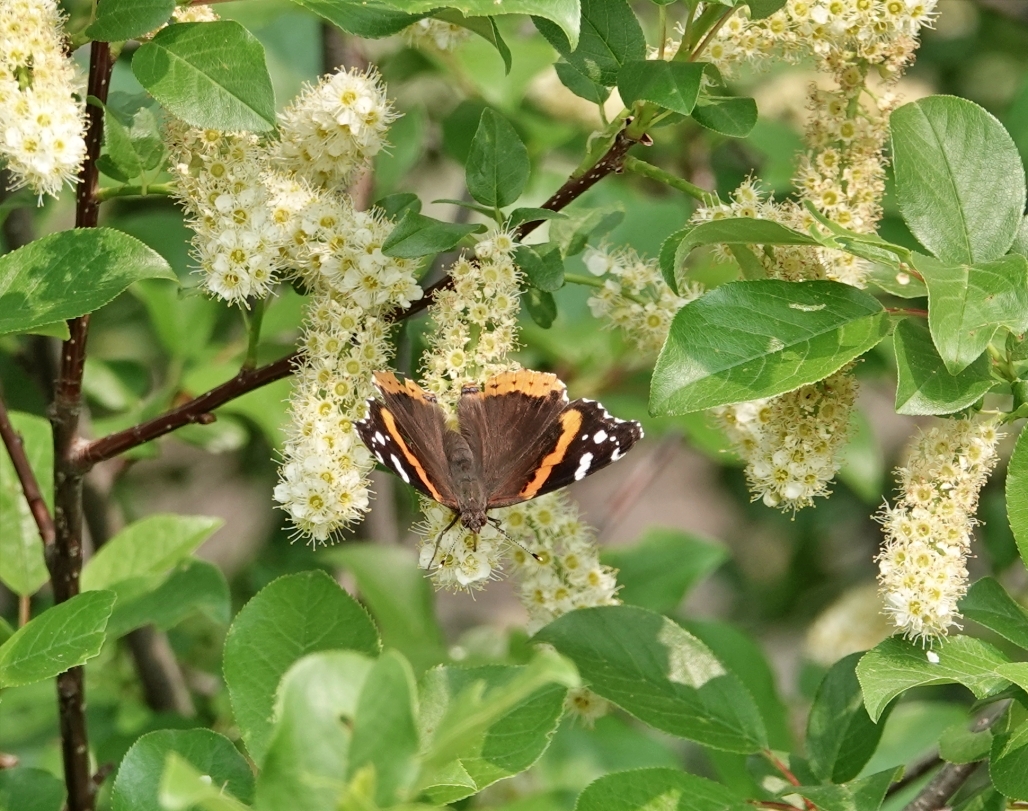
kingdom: Animalia
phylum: Arthropoda
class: Insecta
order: Lepidoptera
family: Nymphalidae
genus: Vanessa
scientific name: Vanessa atalanta
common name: Red admiral
